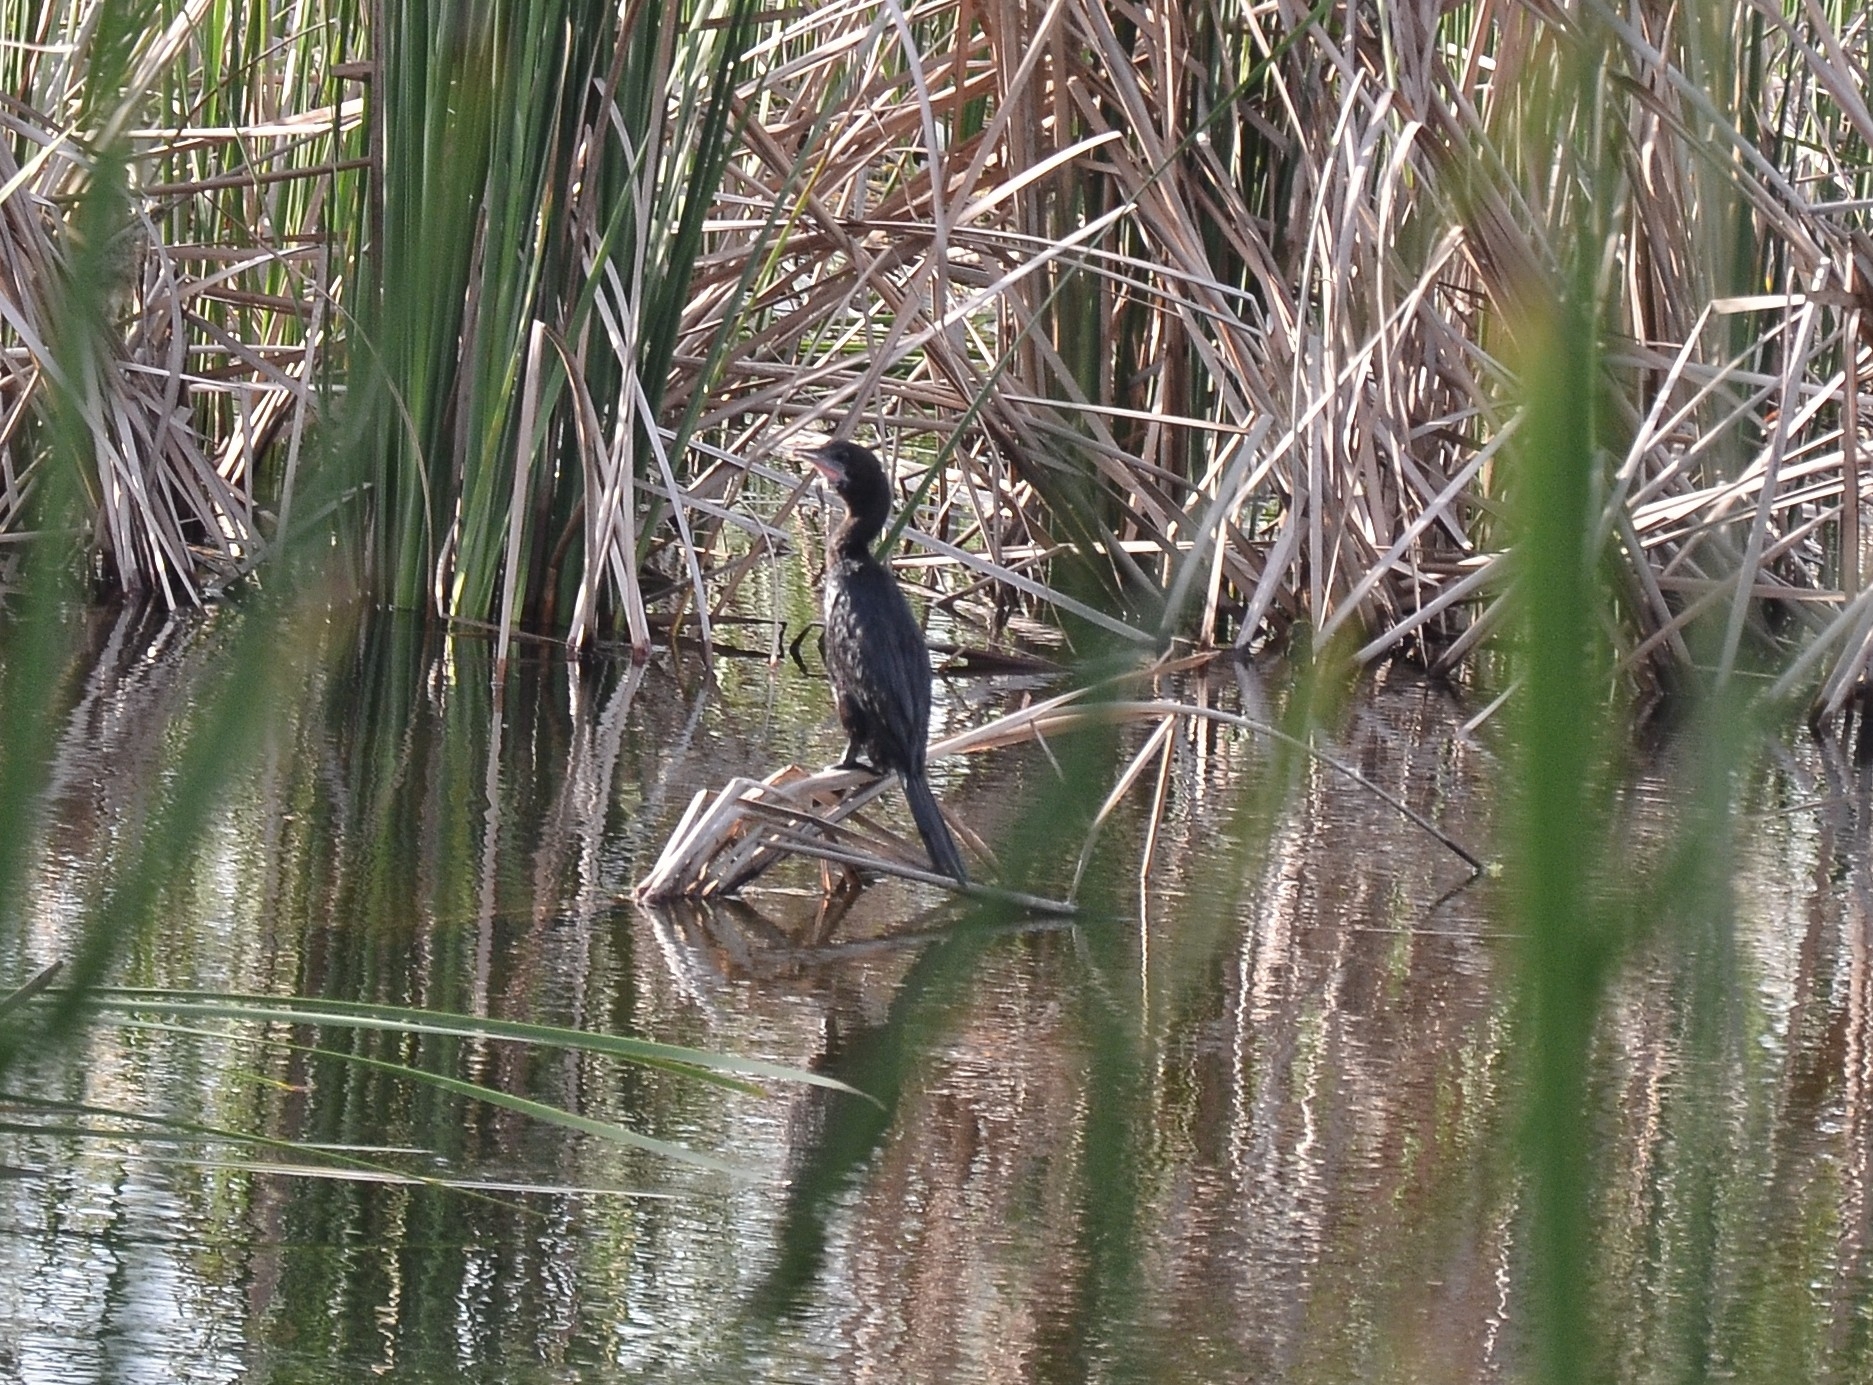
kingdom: Animalia
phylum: Chordata
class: Aves
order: Suliformes
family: Phalacrocoracidae
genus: Microcarbo
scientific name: Microcarbo niger
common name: Little cormorant
